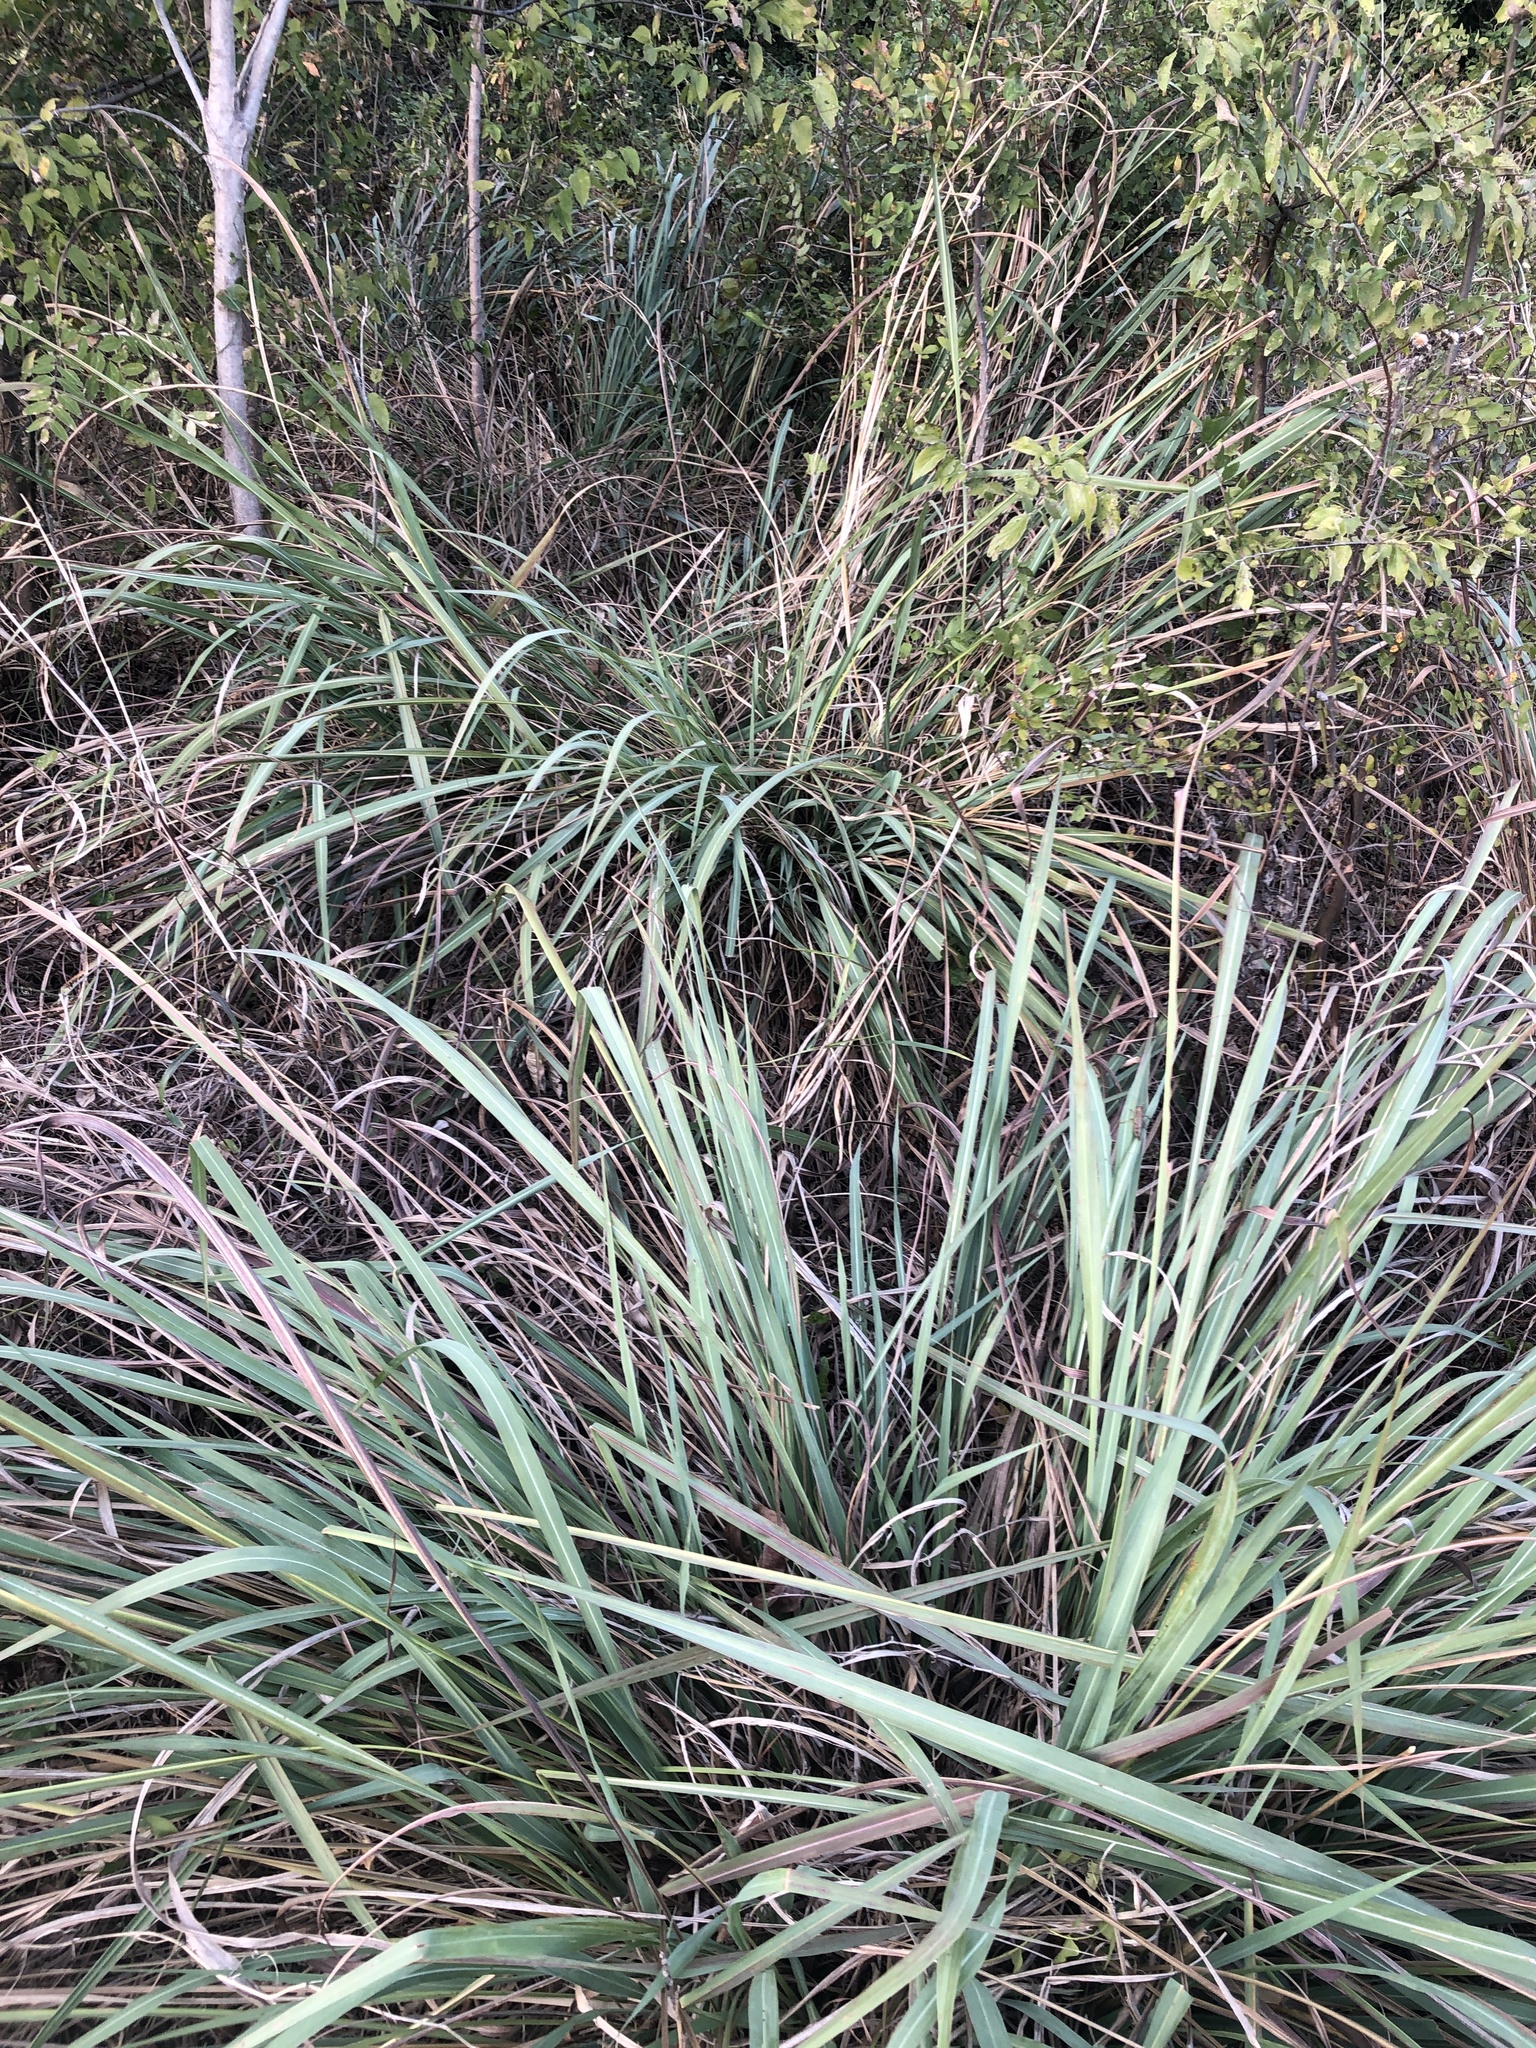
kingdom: Plantae
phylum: Tracheophyta
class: Liliopsida
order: Poales
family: Poaceae
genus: Tripsacum
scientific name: Tripsacum dactyloides
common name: Buffalo-grass
